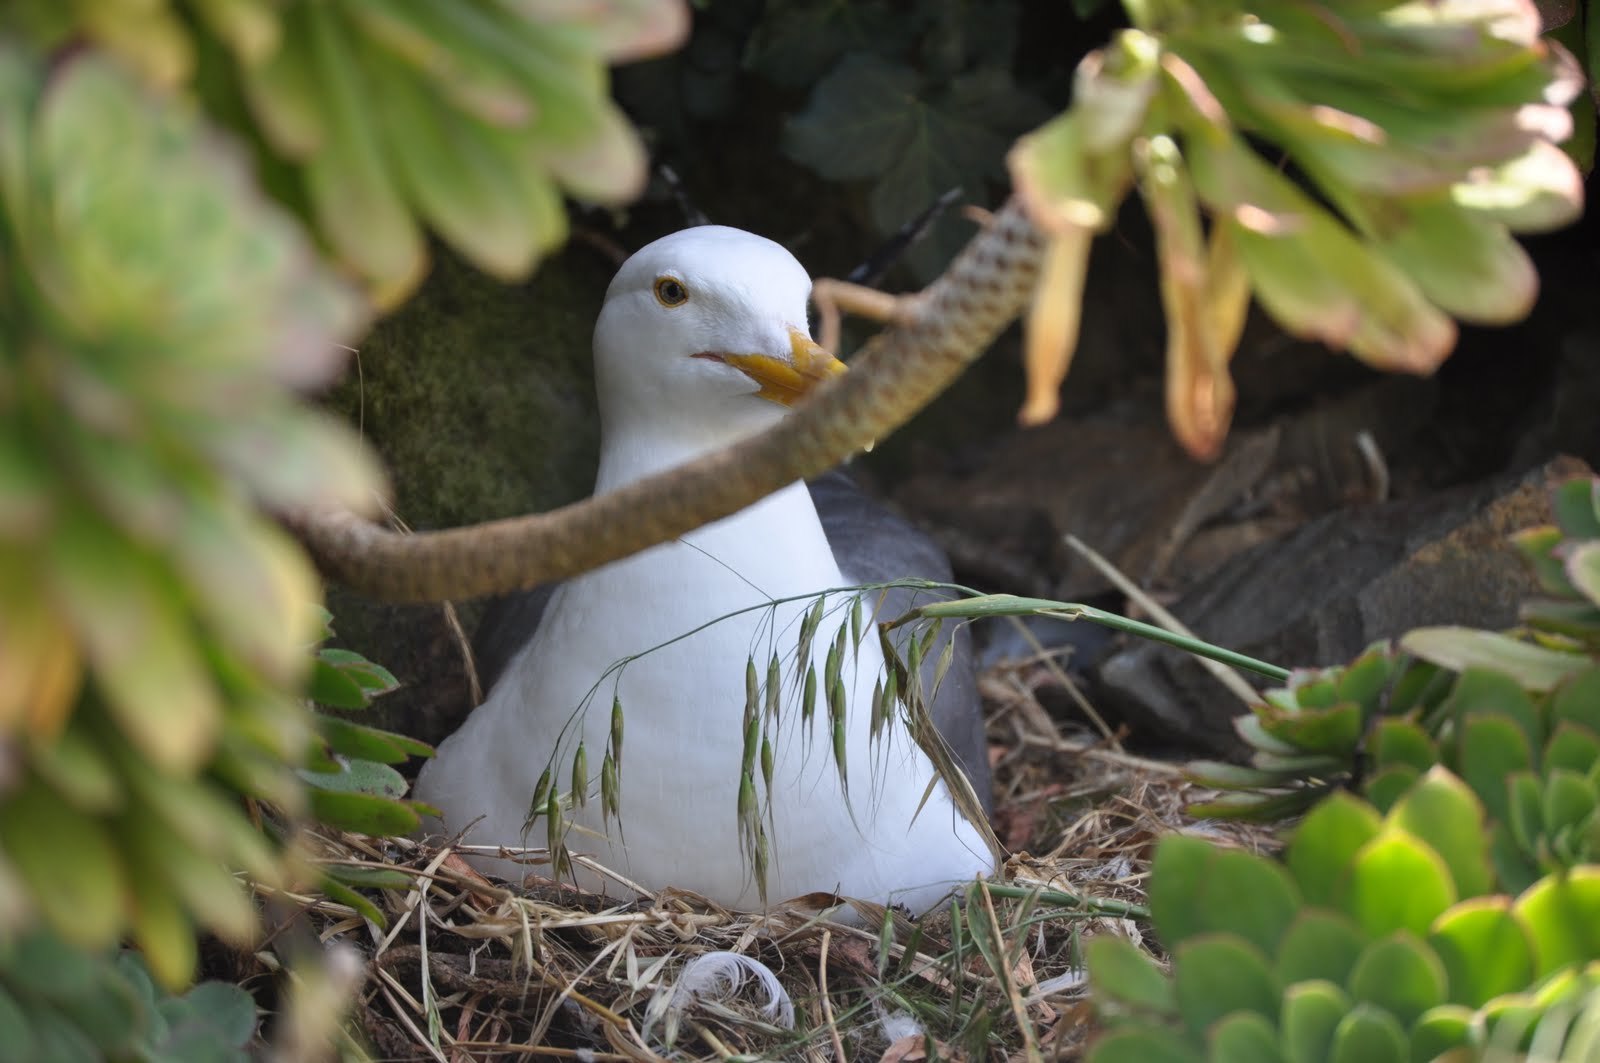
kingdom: Animalia
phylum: Chordata
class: Aves
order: Charadriiformes
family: Laridae
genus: Larus
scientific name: Larus occidentalis
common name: Western gull
